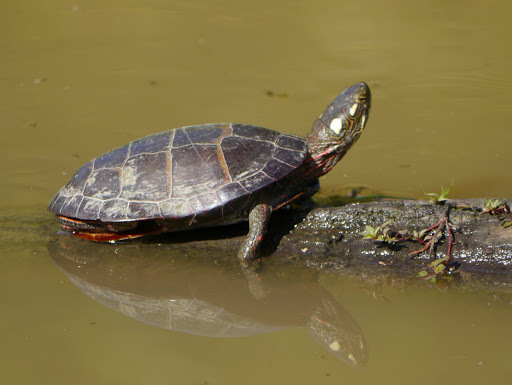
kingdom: Animalia
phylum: Chordata
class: Testudines
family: Emydidae
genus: Chrysemys
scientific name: Chrysemys picta
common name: Painted turtle
